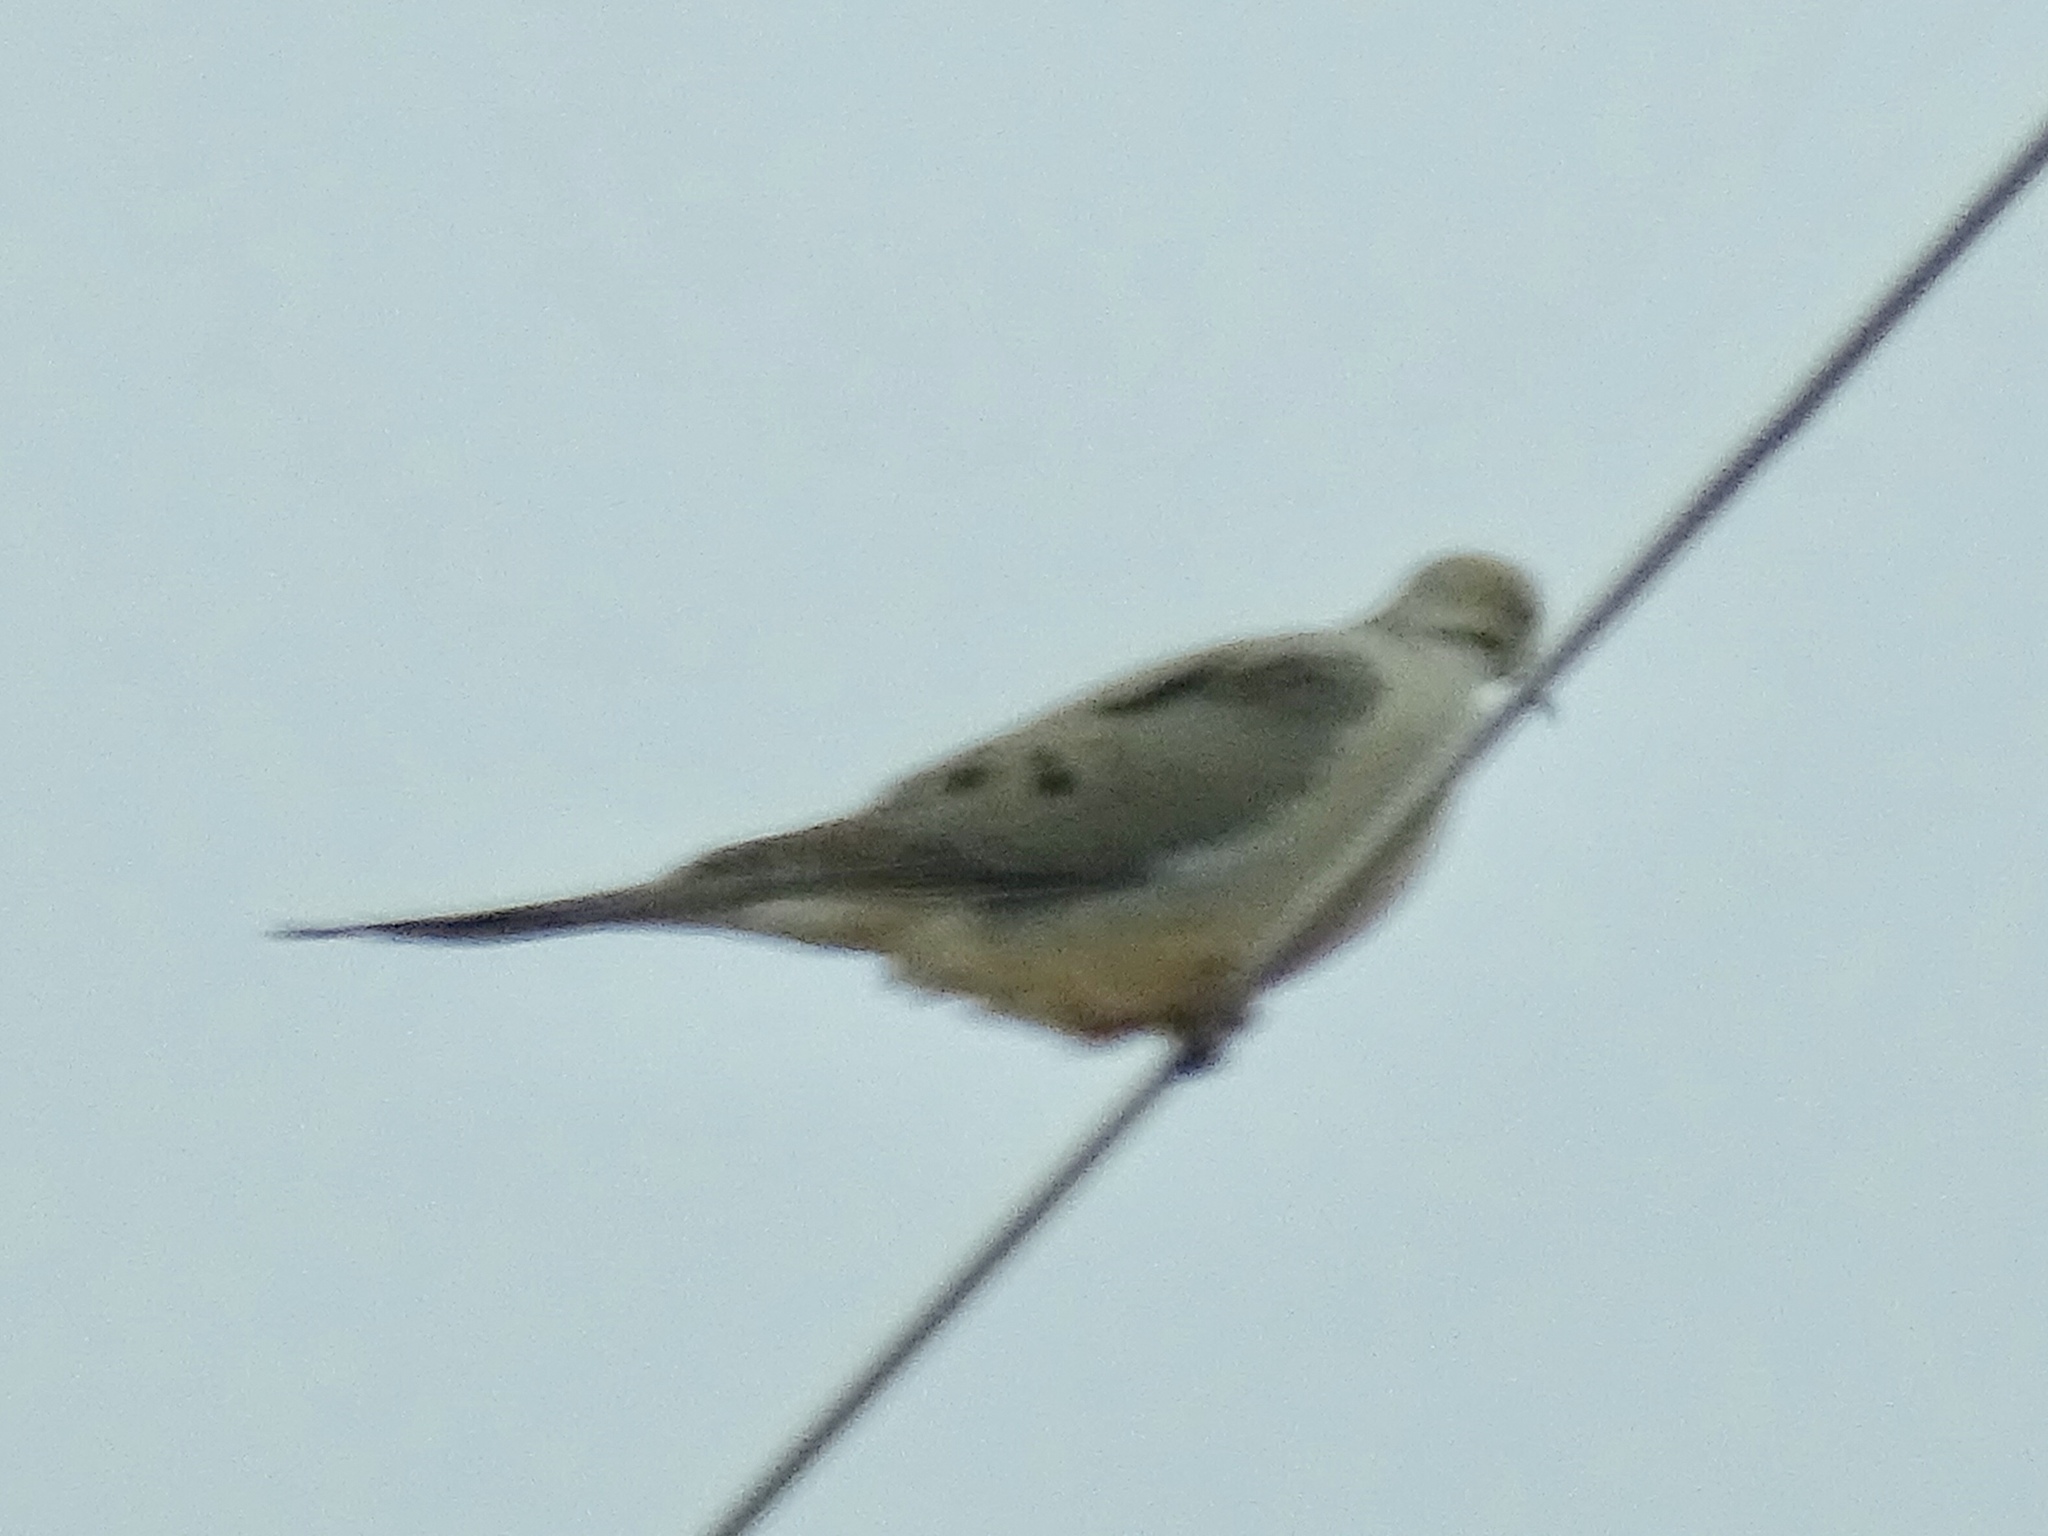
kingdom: Animalia
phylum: Chordata
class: Aves
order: Columbiformes
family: Columbidae
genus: Zenaida
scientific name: Zenaida macroura
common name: Mourning dove
